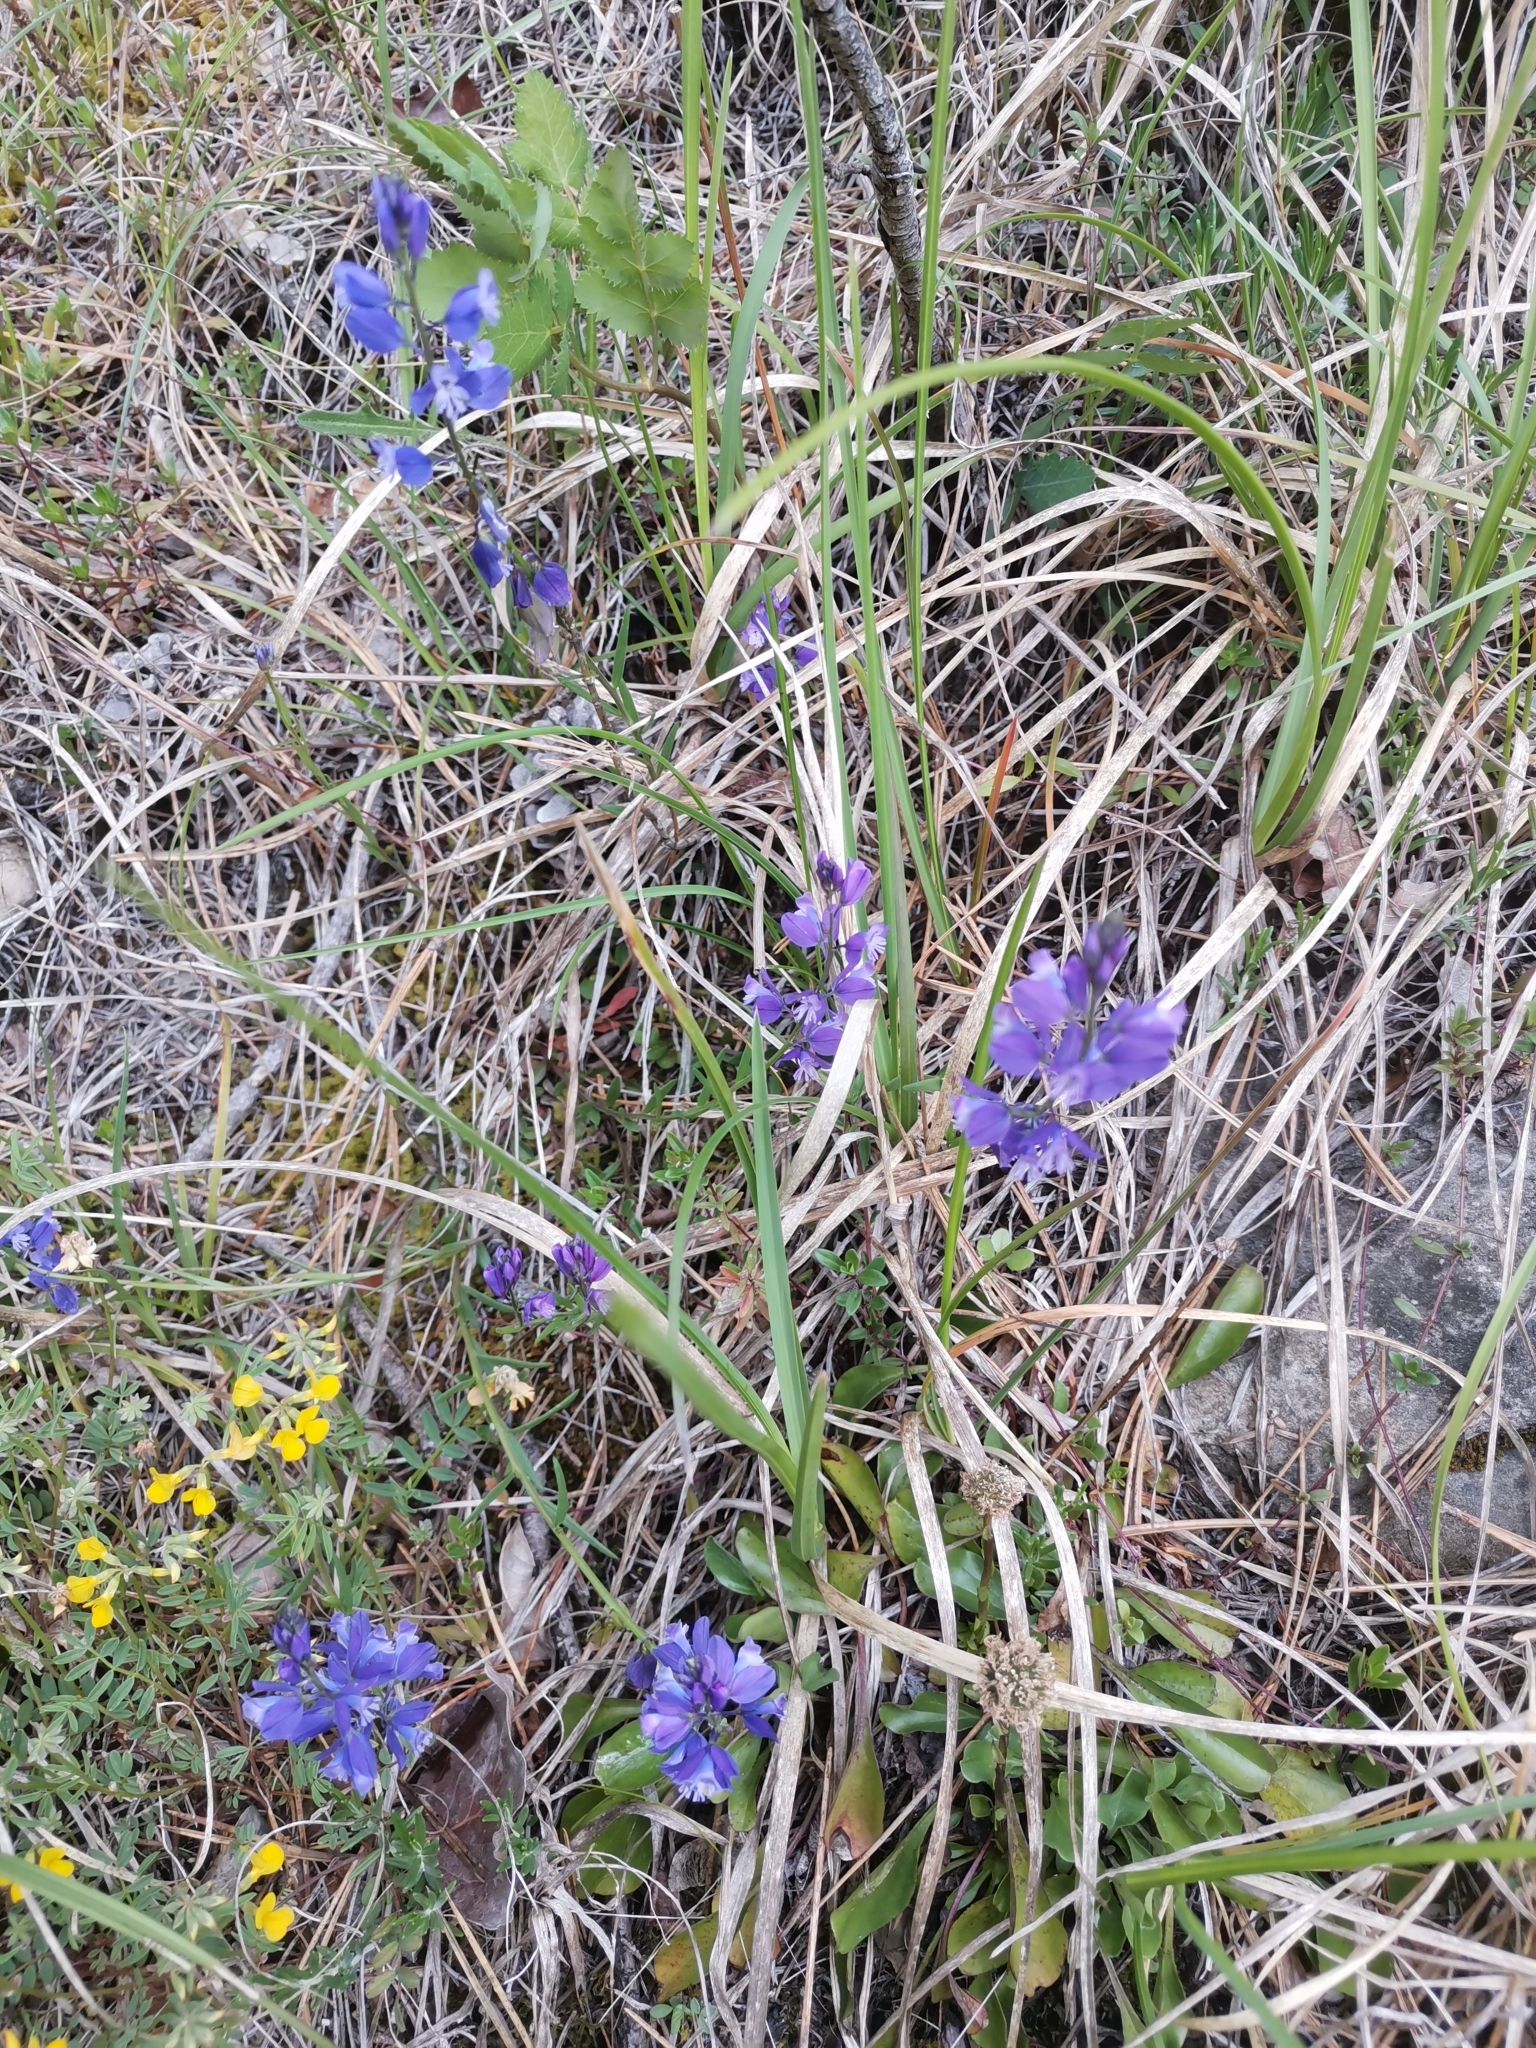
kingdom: Plantae
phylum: Tracheophyta
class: Magnoliopsida
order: Fabales
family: Polygalaceae
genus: Polygala
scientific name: Polygala nicaeensis
